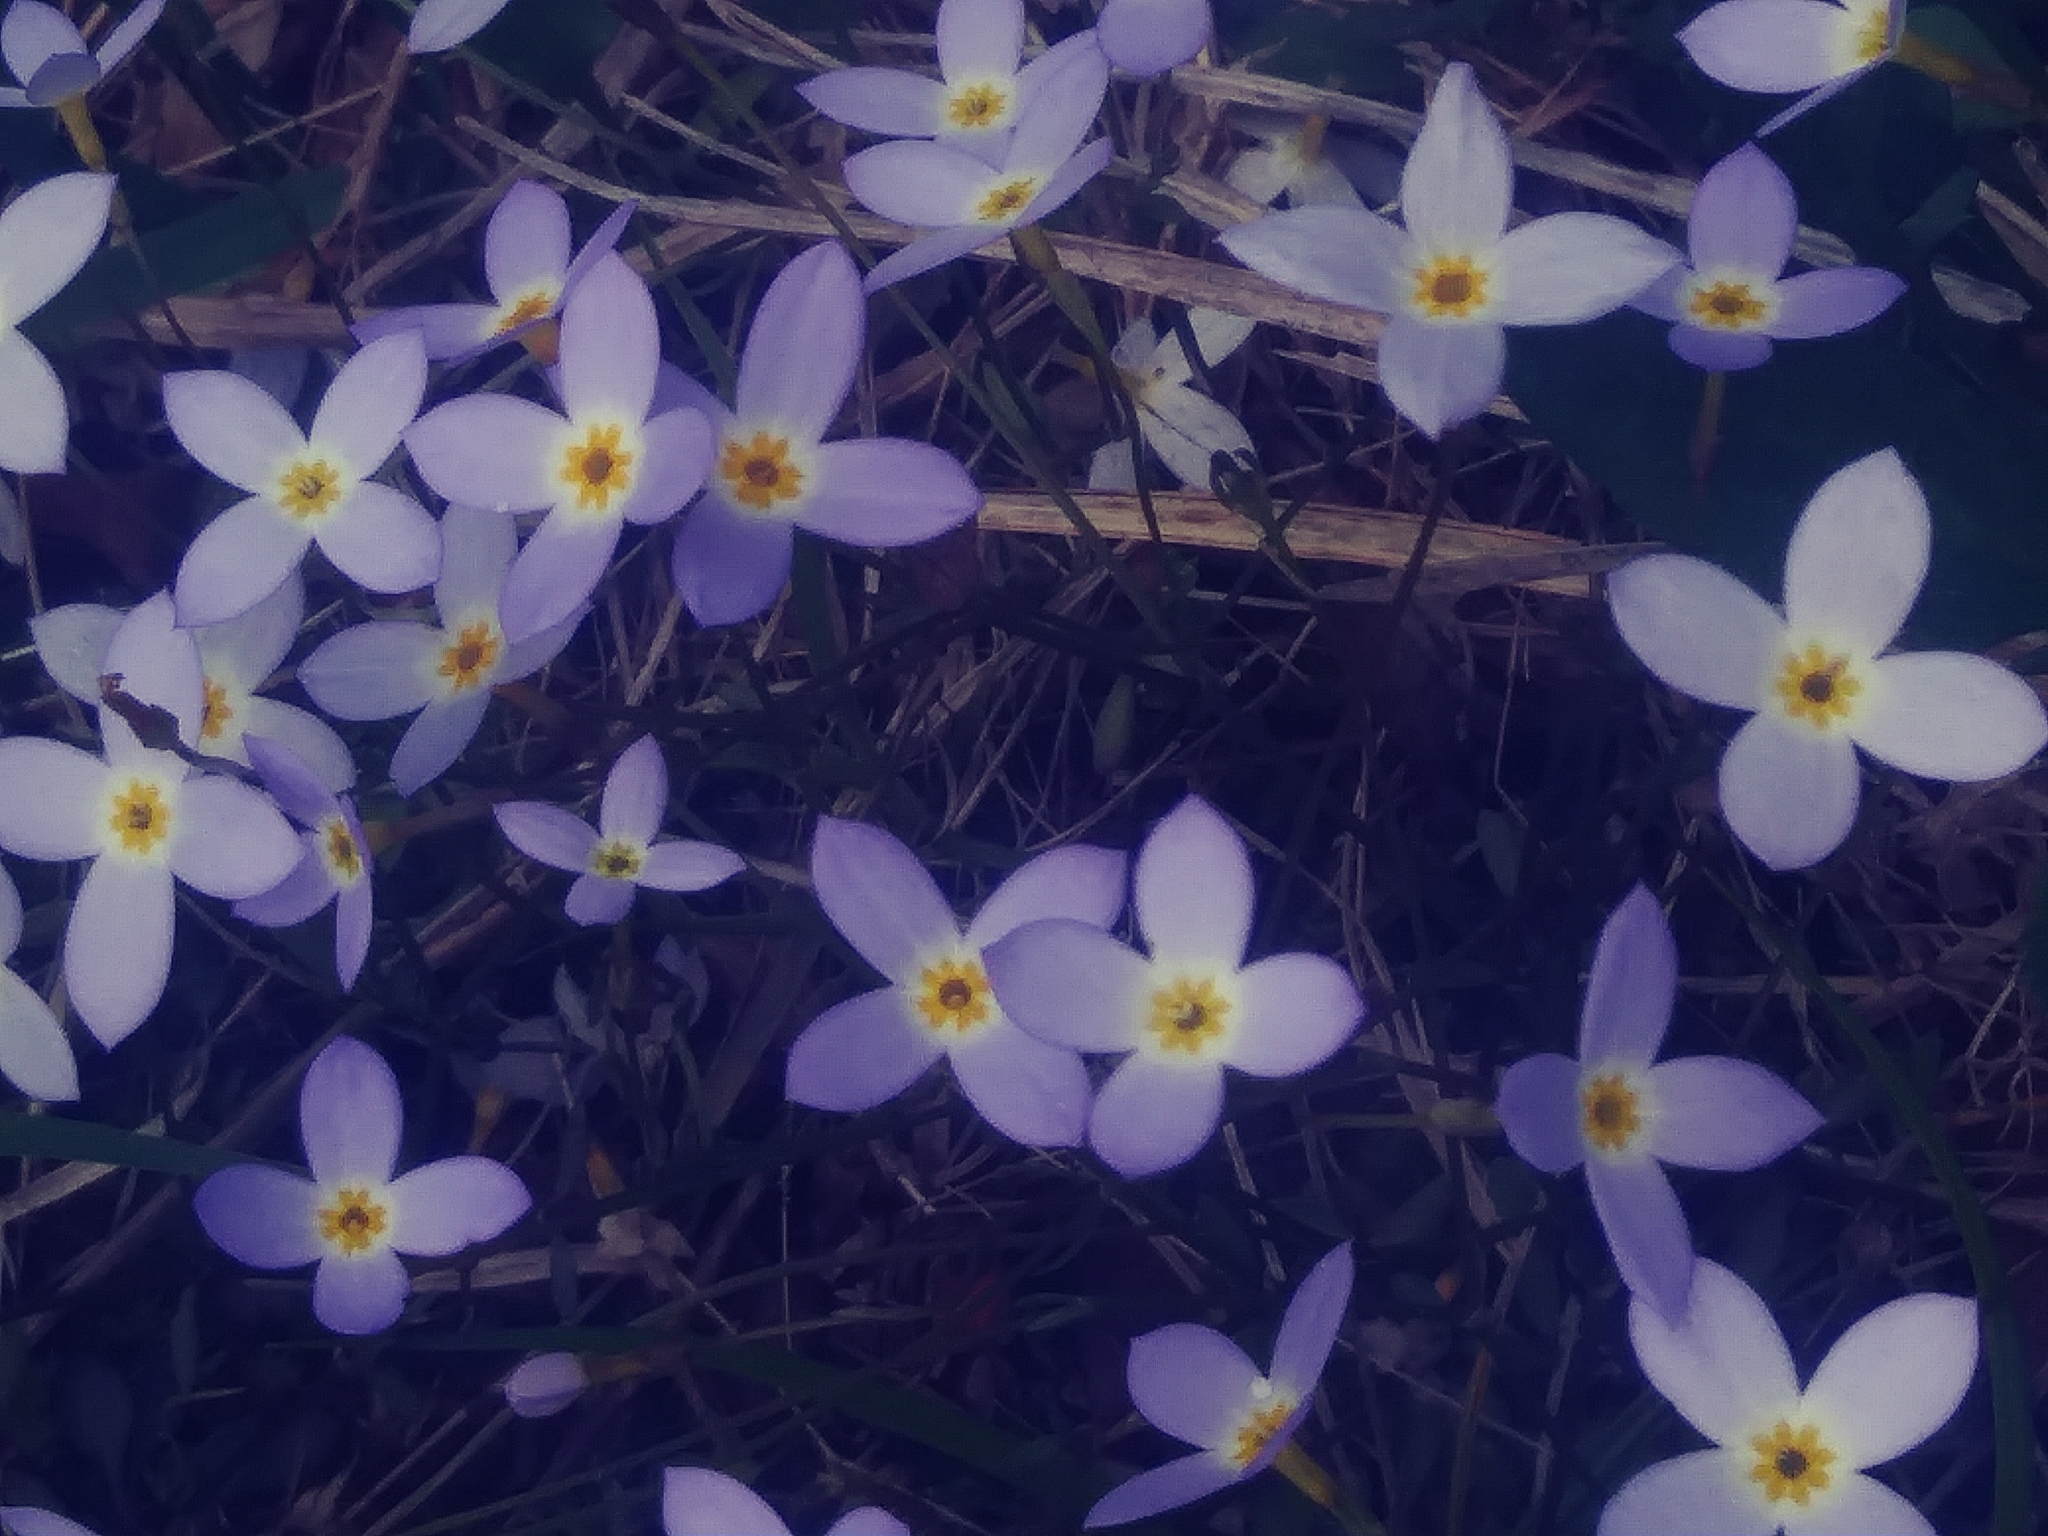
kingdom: Plantae
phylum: Tracheophyta
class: Magnoliopsida
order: Gentianales
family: Rubiaceae
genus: Houstonia
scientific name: Houstonia caerulea
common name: Bluets
